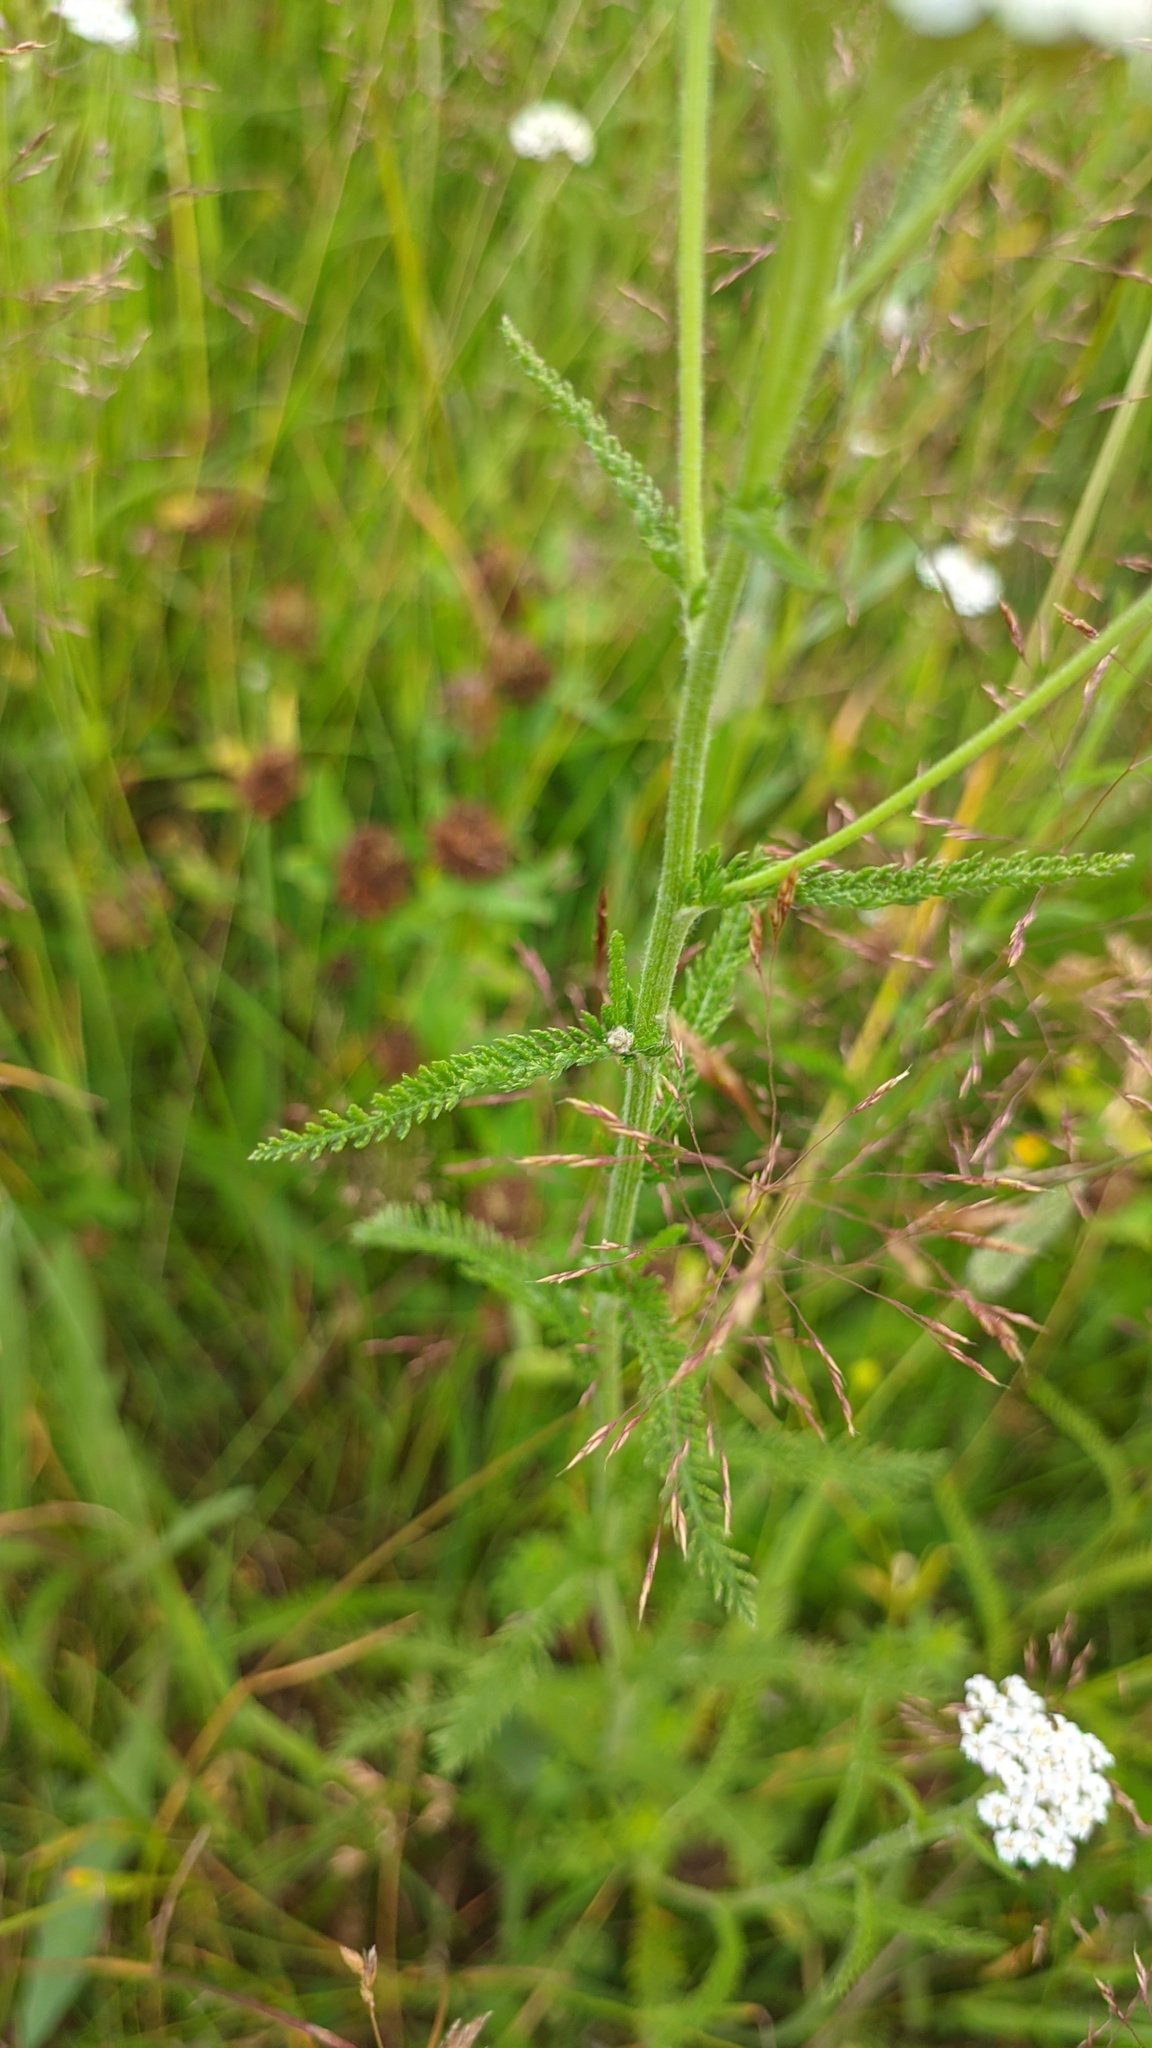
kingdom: Plantae
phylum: Tracheophyta
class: Magnoliopsida
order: Asterales
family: Asteraceae
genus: Achillea
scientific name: Achillea millefolium
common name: Yarrow
